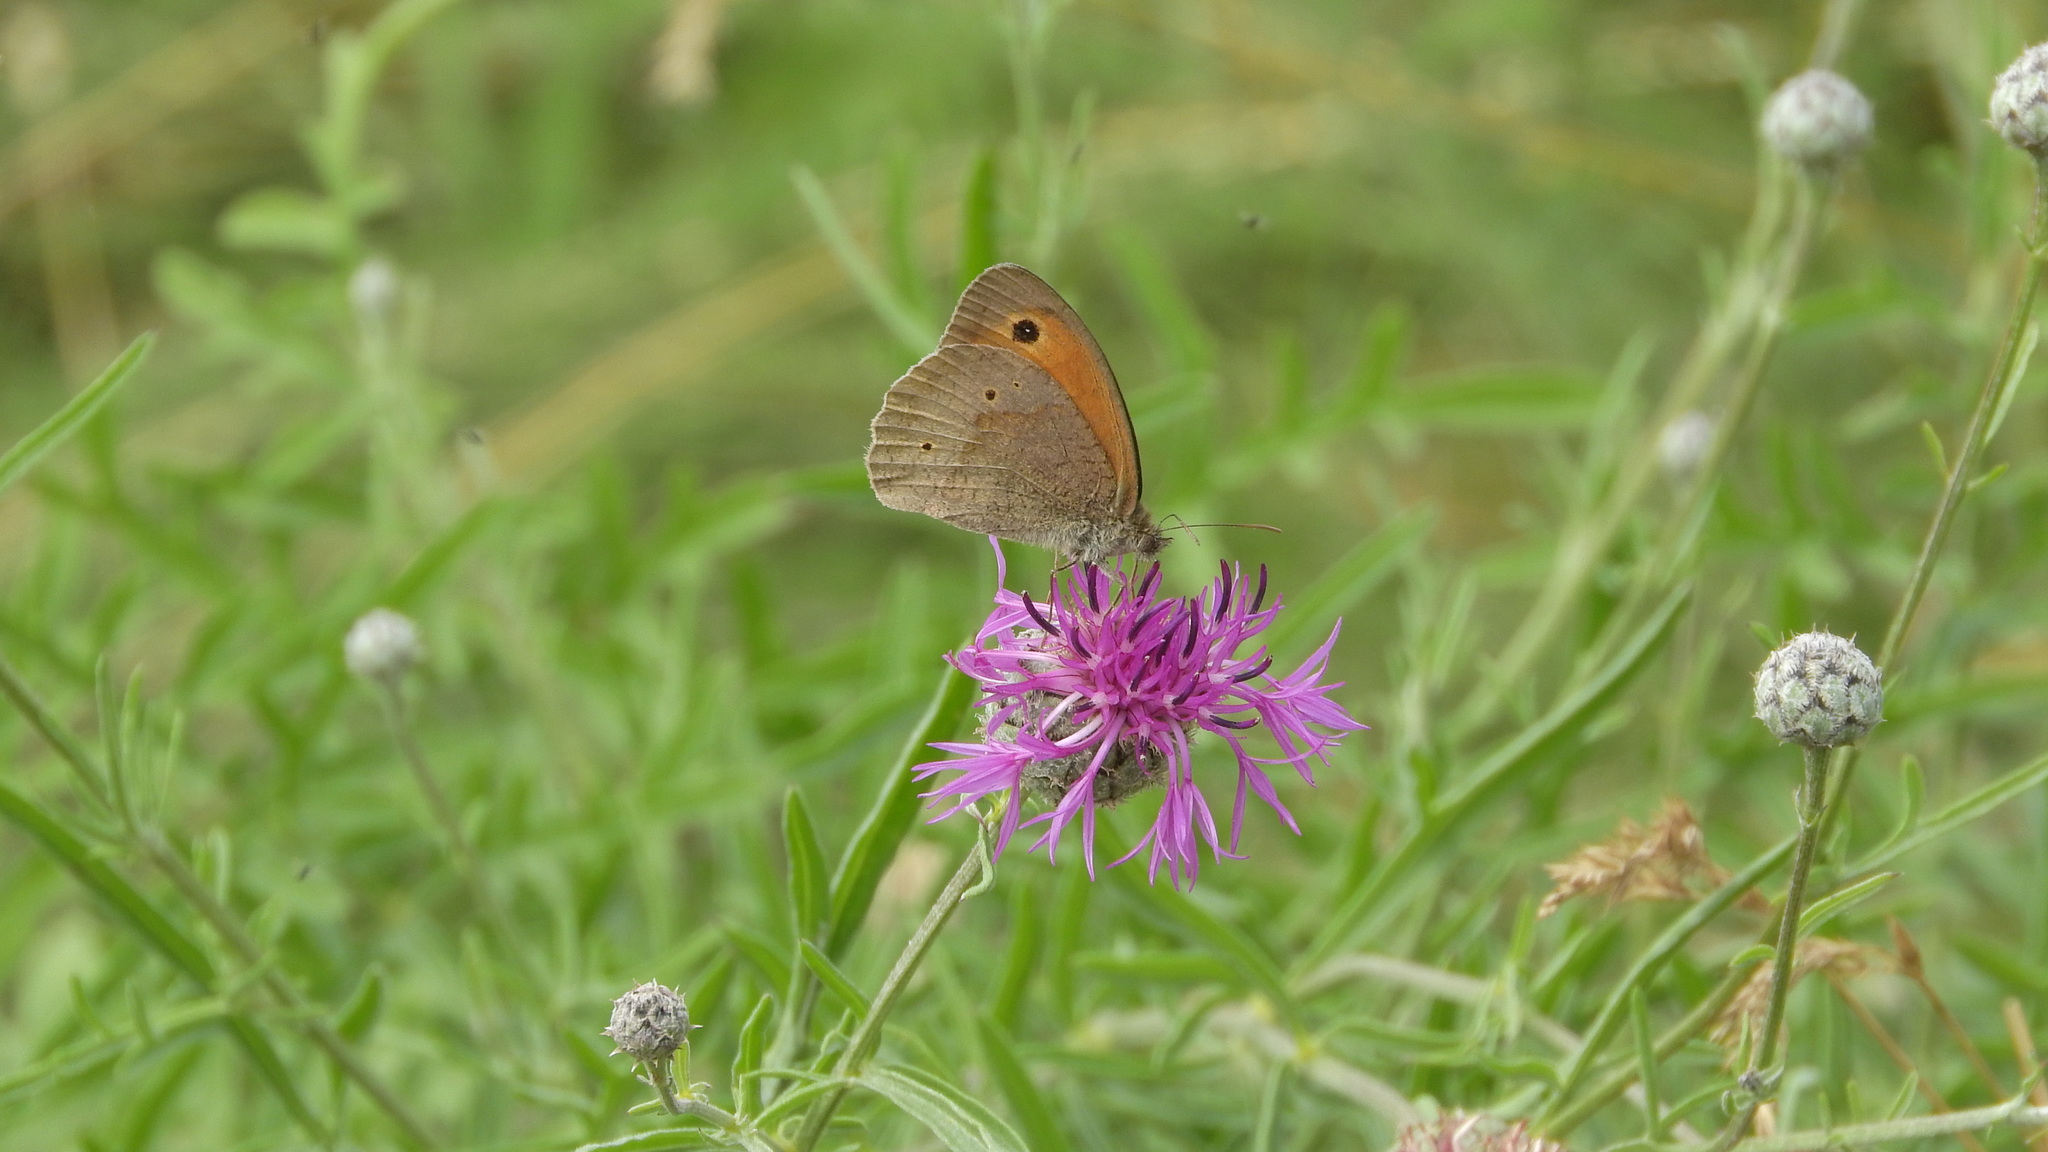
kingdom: Animalia
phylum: Arthropoda
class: Insecta
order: Lepidoptera
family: Nymphalidae
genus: Maniola
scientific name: Maniola jurtina
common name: Meadow brown
